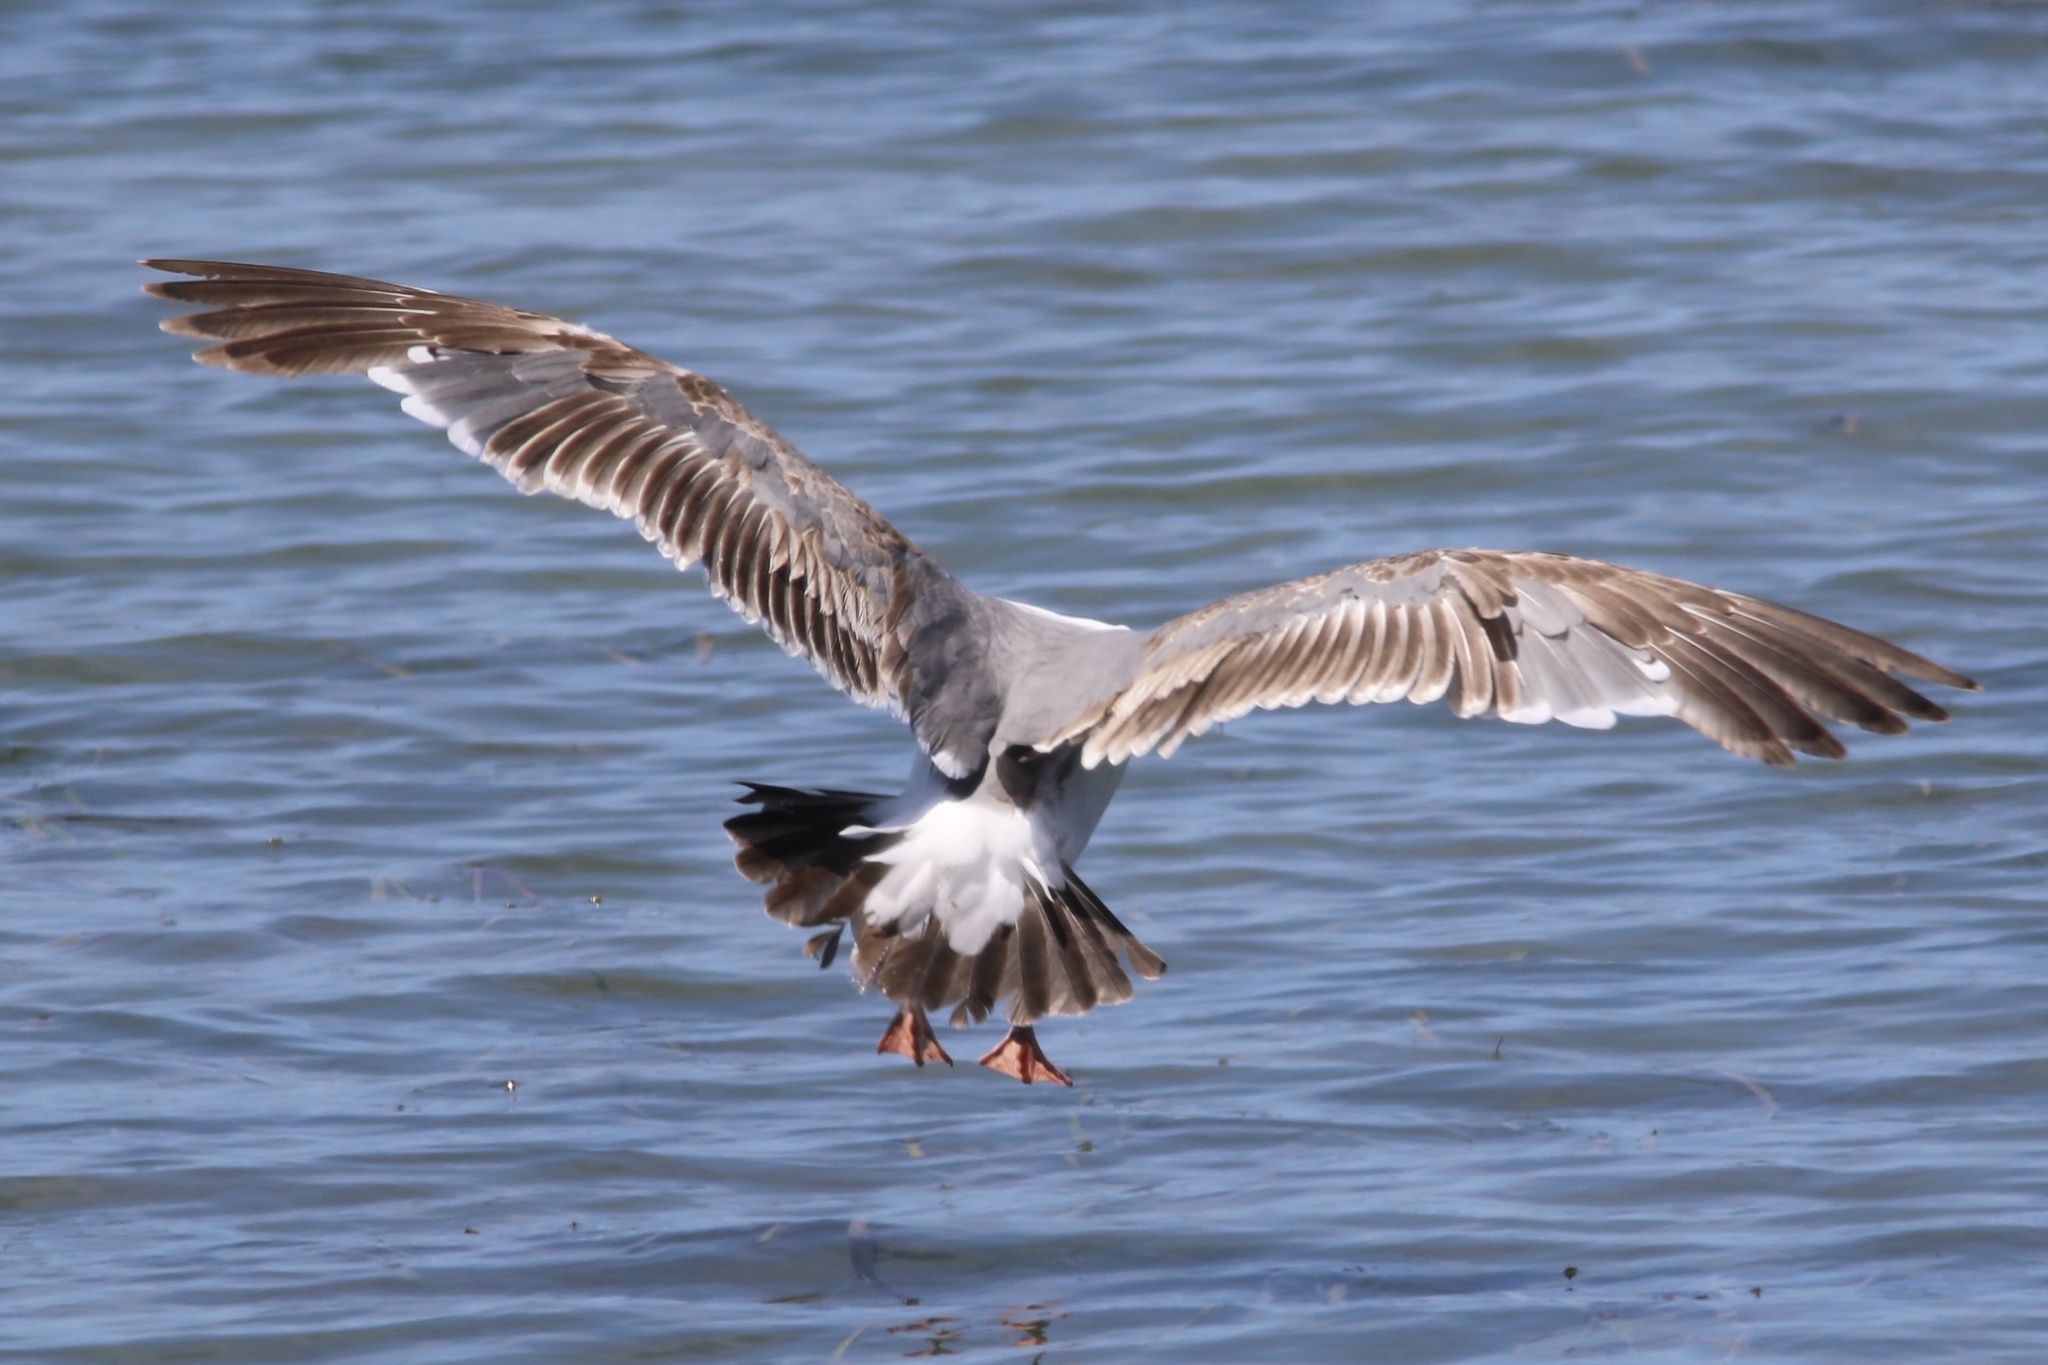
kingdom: Animalia
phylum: Chordata
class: Aves
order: Charadriiformes
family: Laridae
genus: Larus
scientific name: Larus occidentalis
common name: Western gull
